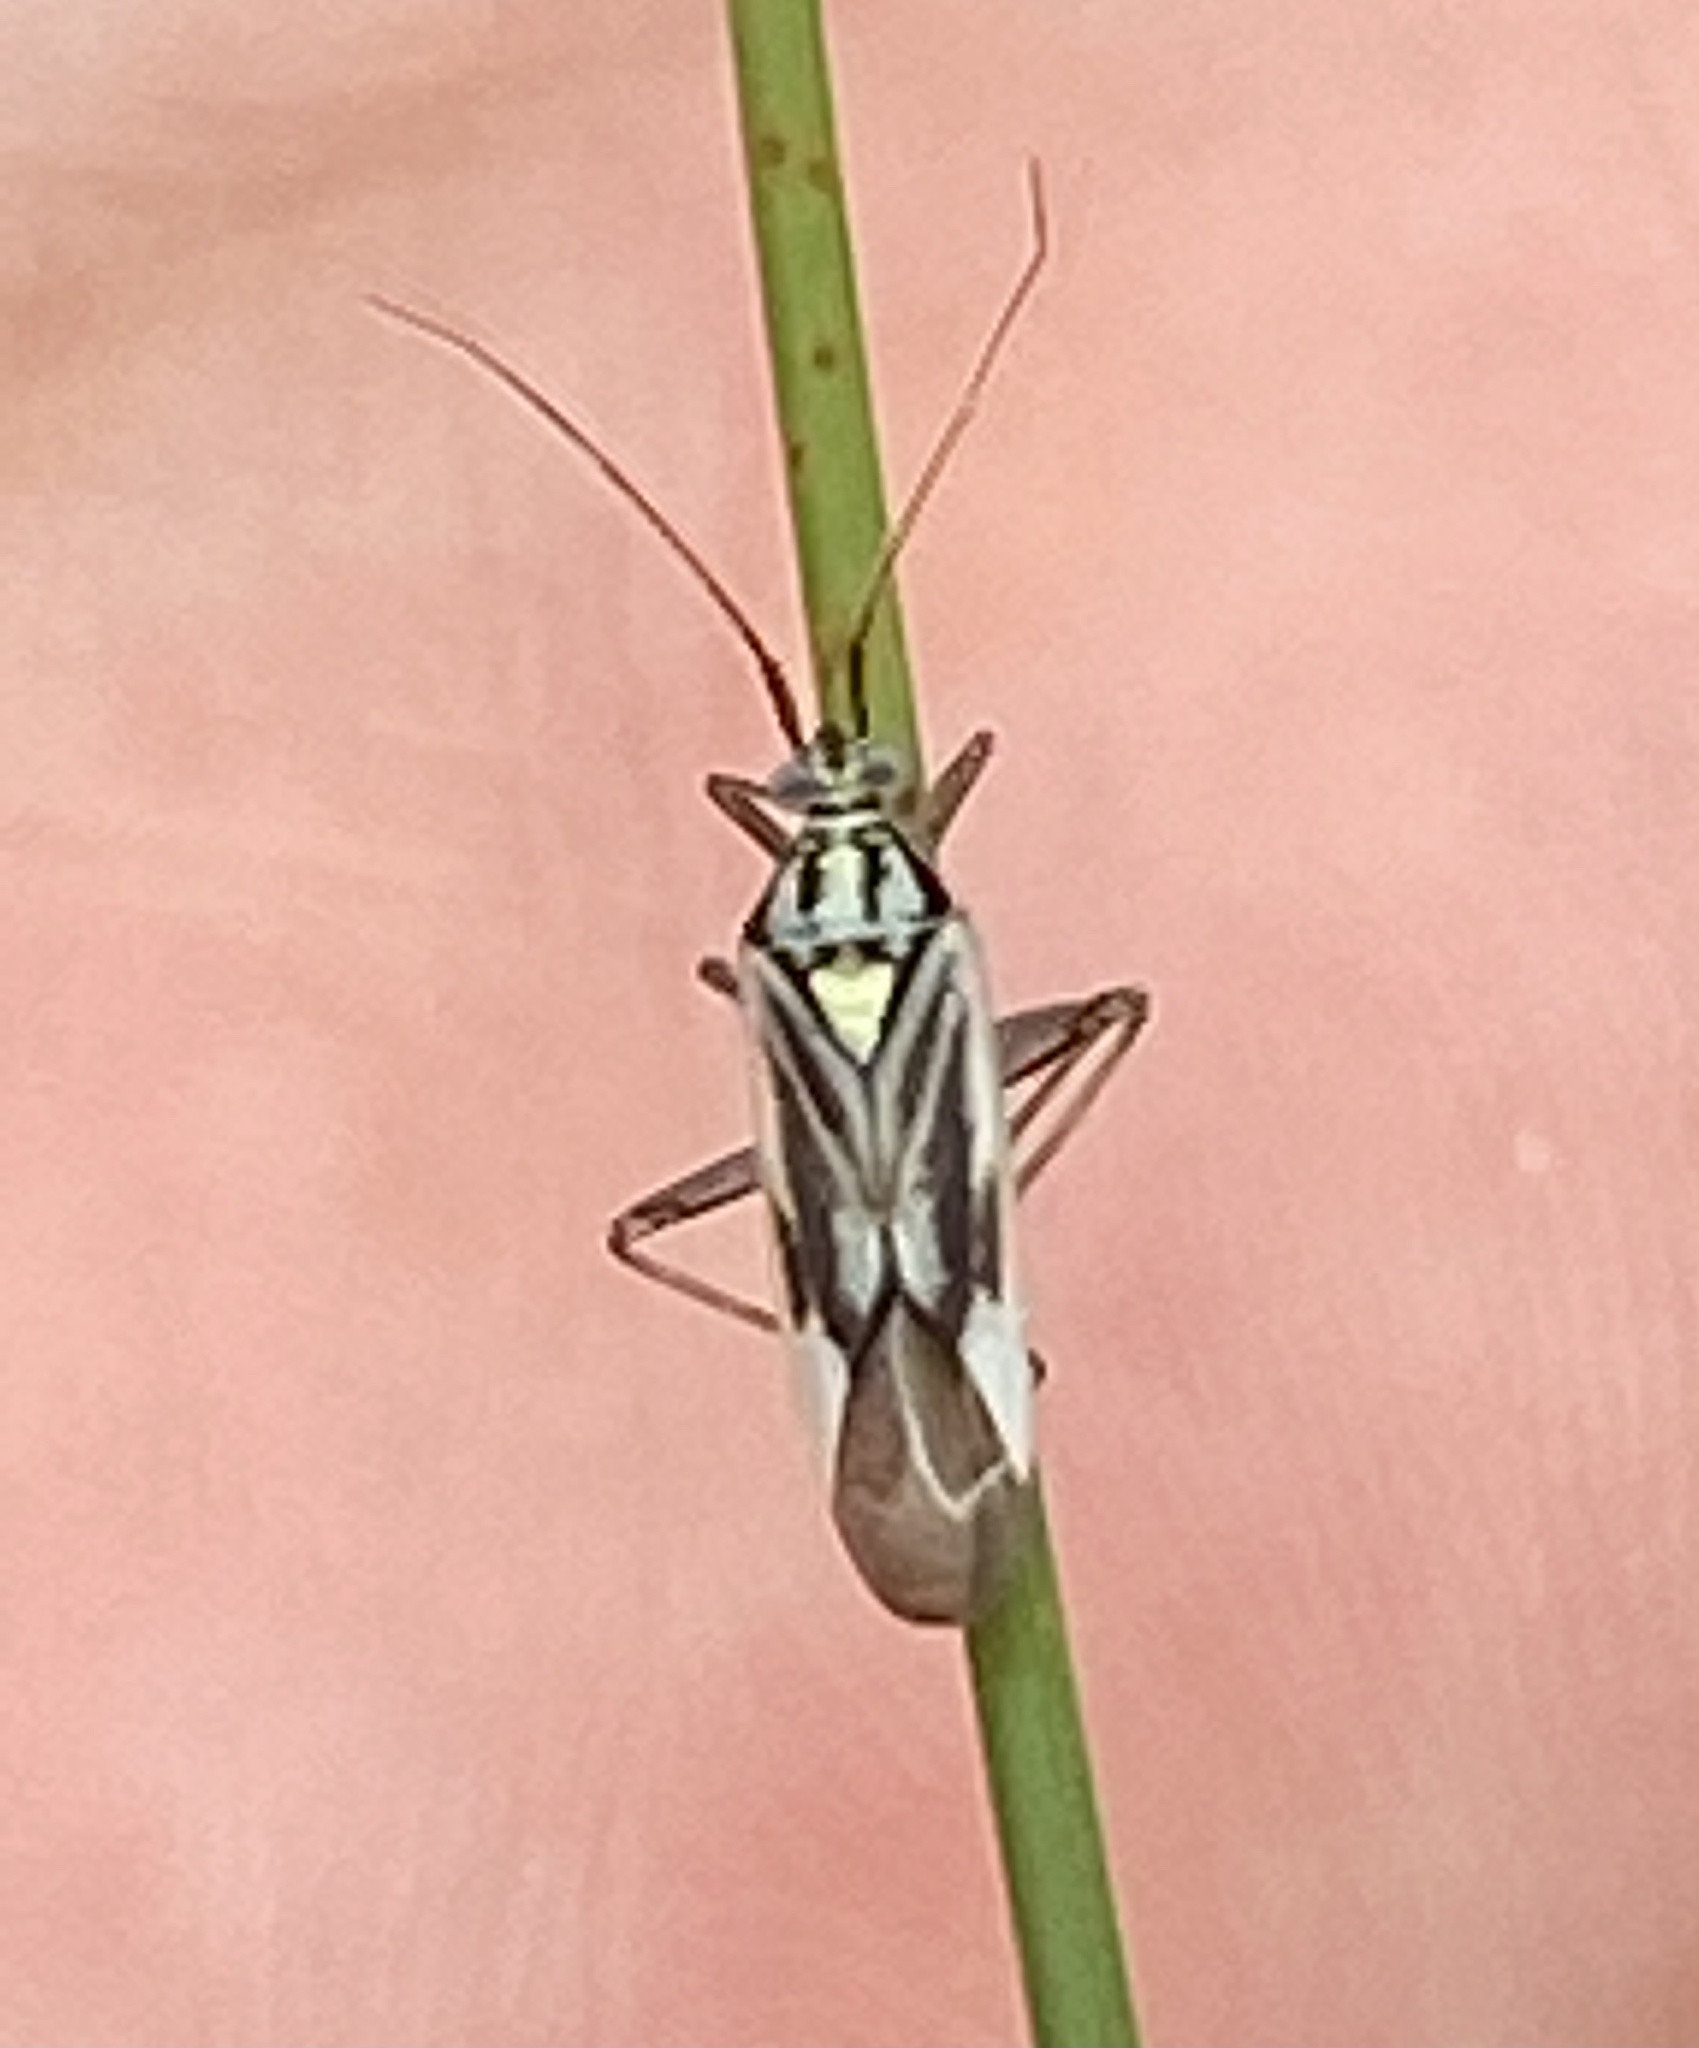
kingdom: Animalia
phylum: Arthropoda
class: Insecta
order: Hemiptera
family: Miridae
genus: Stenotus
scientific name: Stenotus nigroquadristriatus
